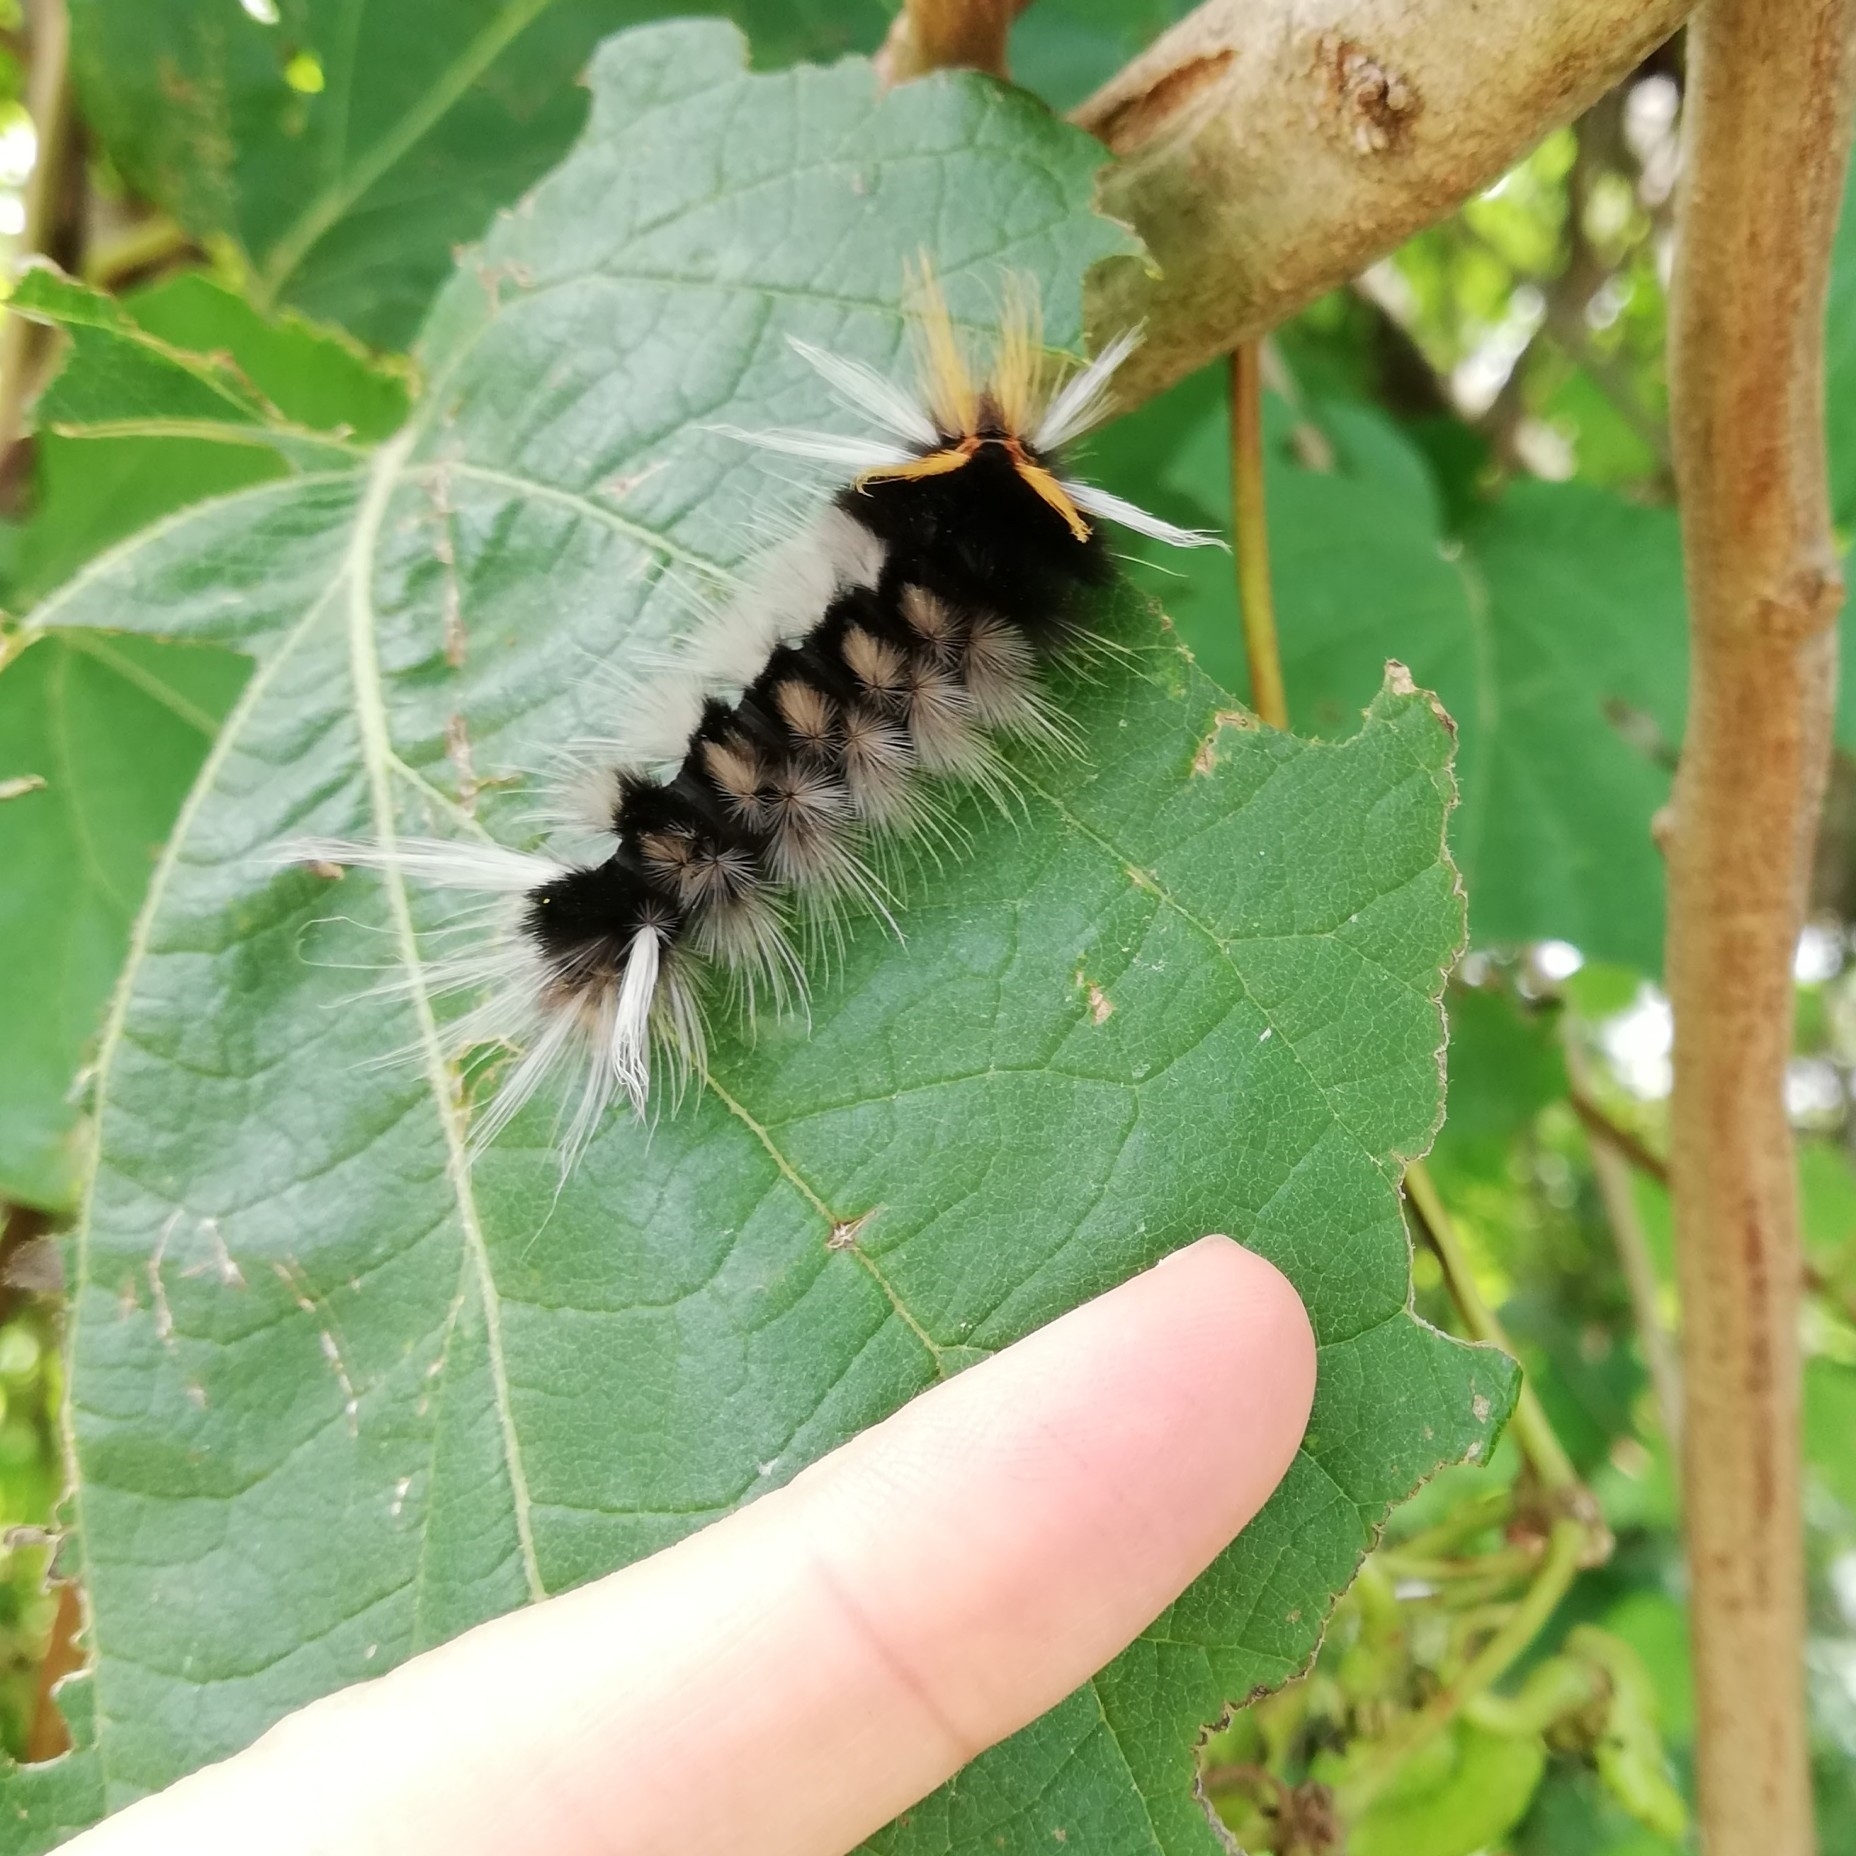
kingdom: Animalia
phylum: Arthropoda
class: Insecta
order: Lepidoptera
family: Erebidae
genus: Halysidota
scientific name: Halysidota ruscheweyhi
